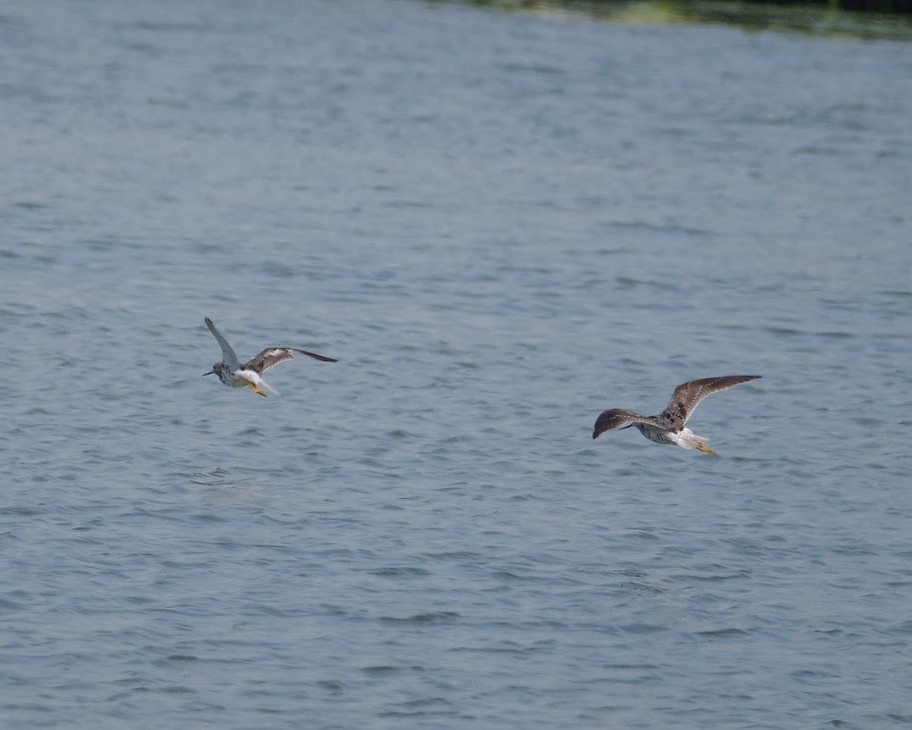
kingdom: Animalia
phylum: Chordata
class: Aves
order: Charadriiformes
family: Scolopacidae
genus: Tringa
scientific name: Tringa melanoleuca
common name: Greater yellowlegs
